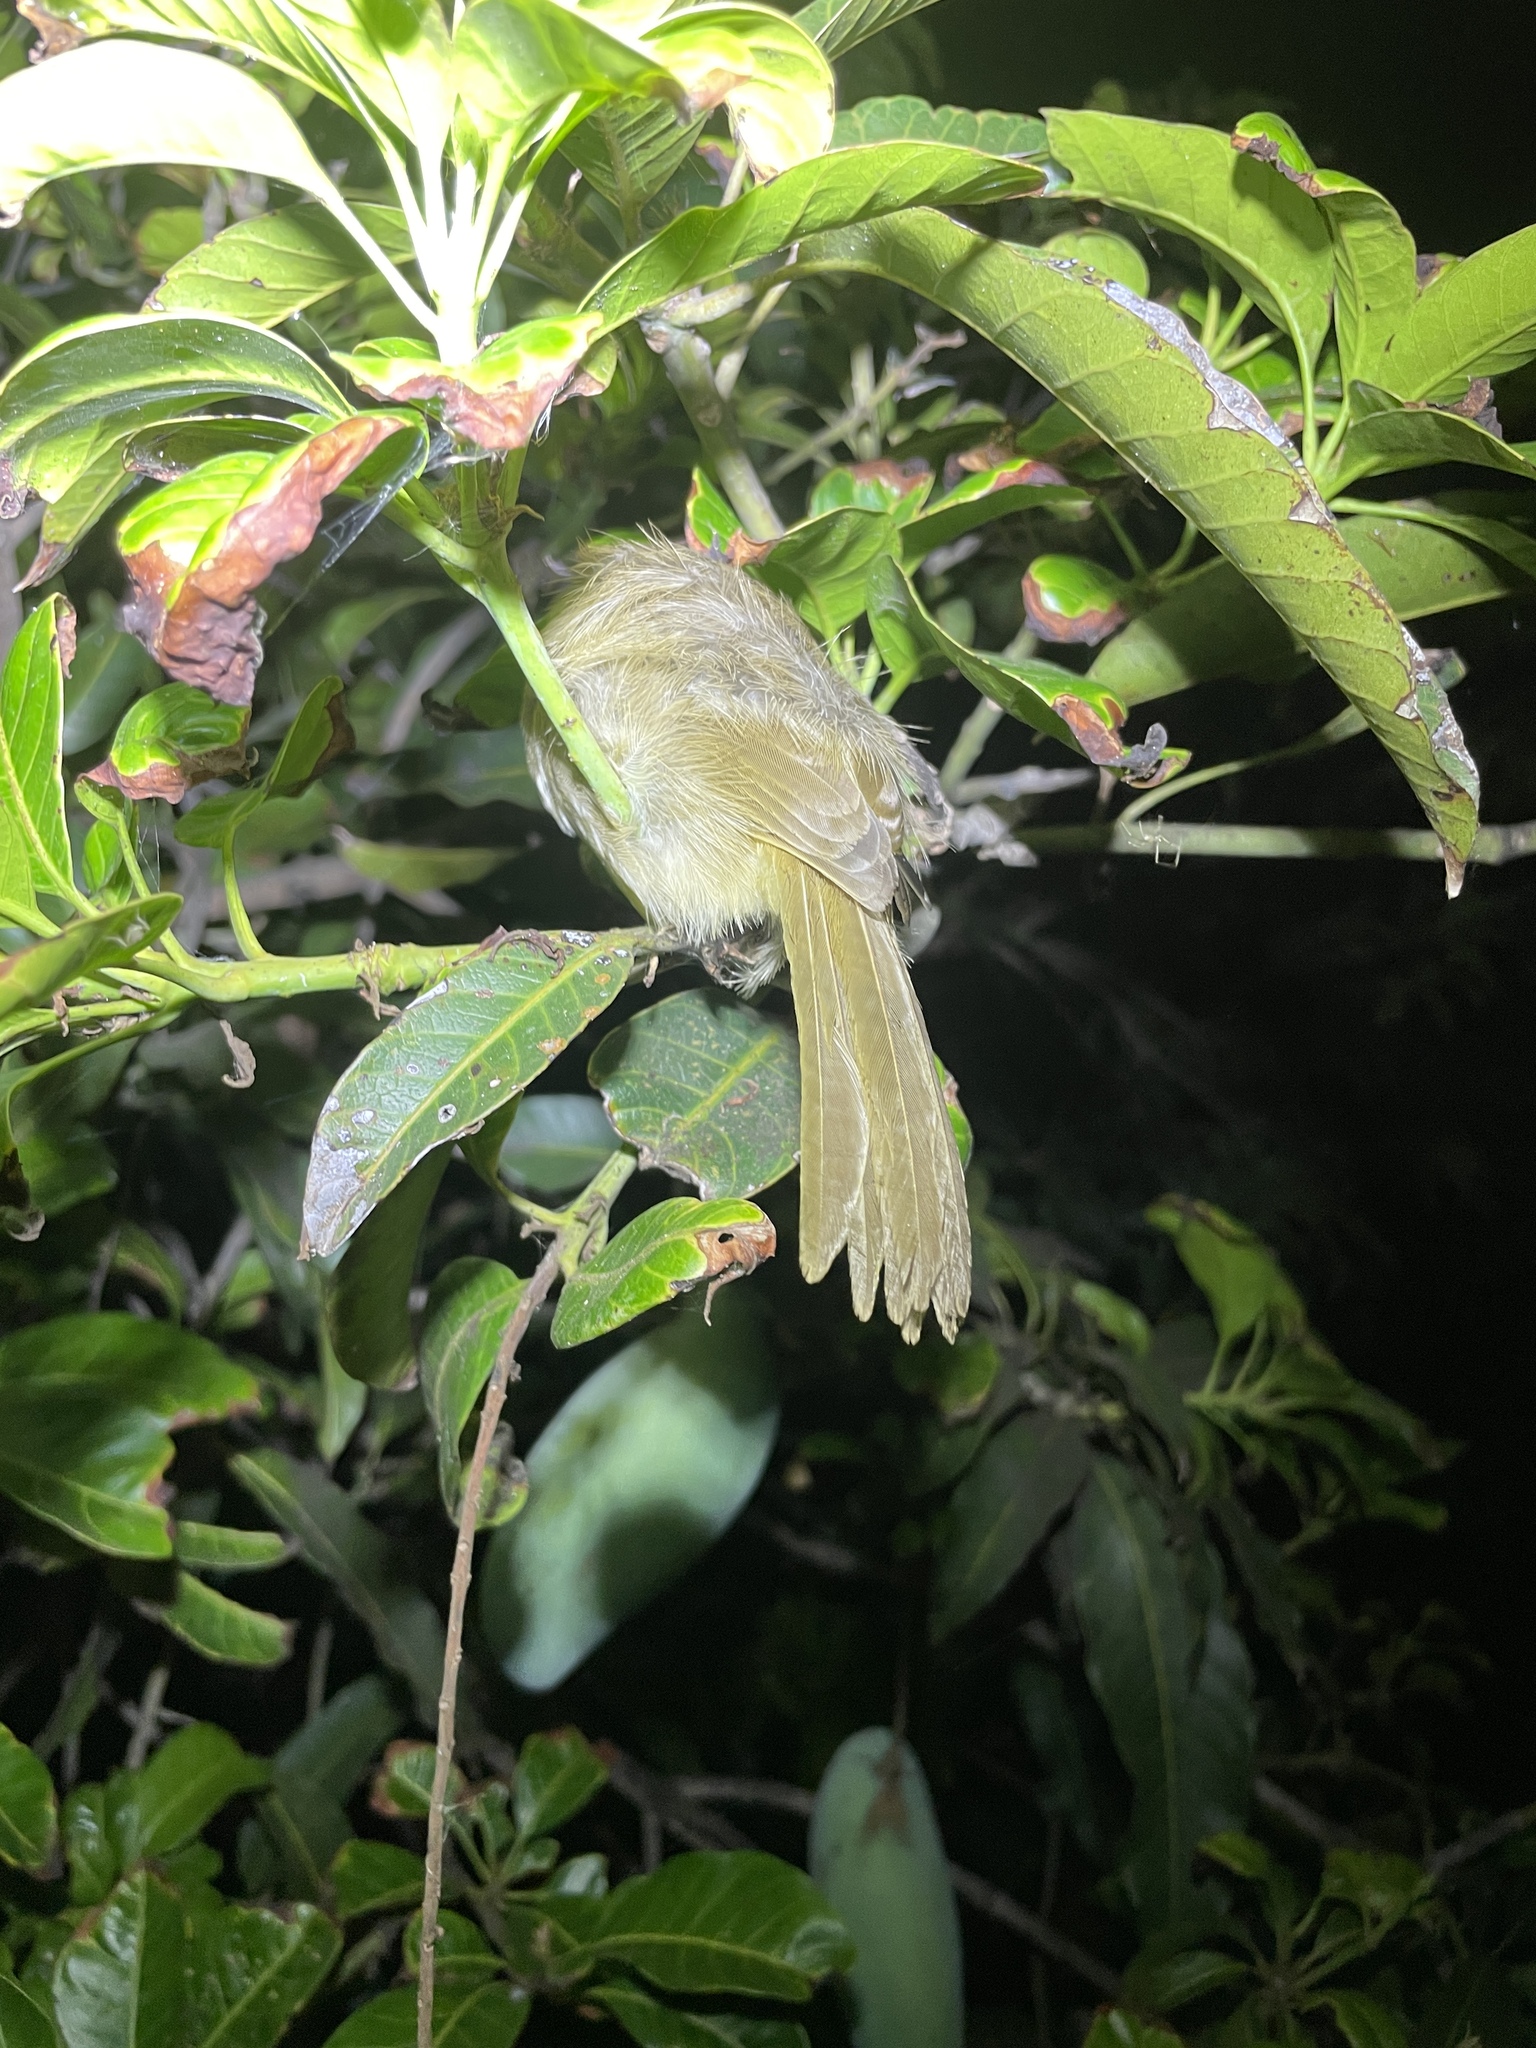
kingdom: Animalia
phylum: Chordata
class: Aves
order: Passeriformes
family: Pycnonotidae
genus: Pycnonotus
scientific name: Pycnonotus blanfordi
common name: Streak-eared bulbul
